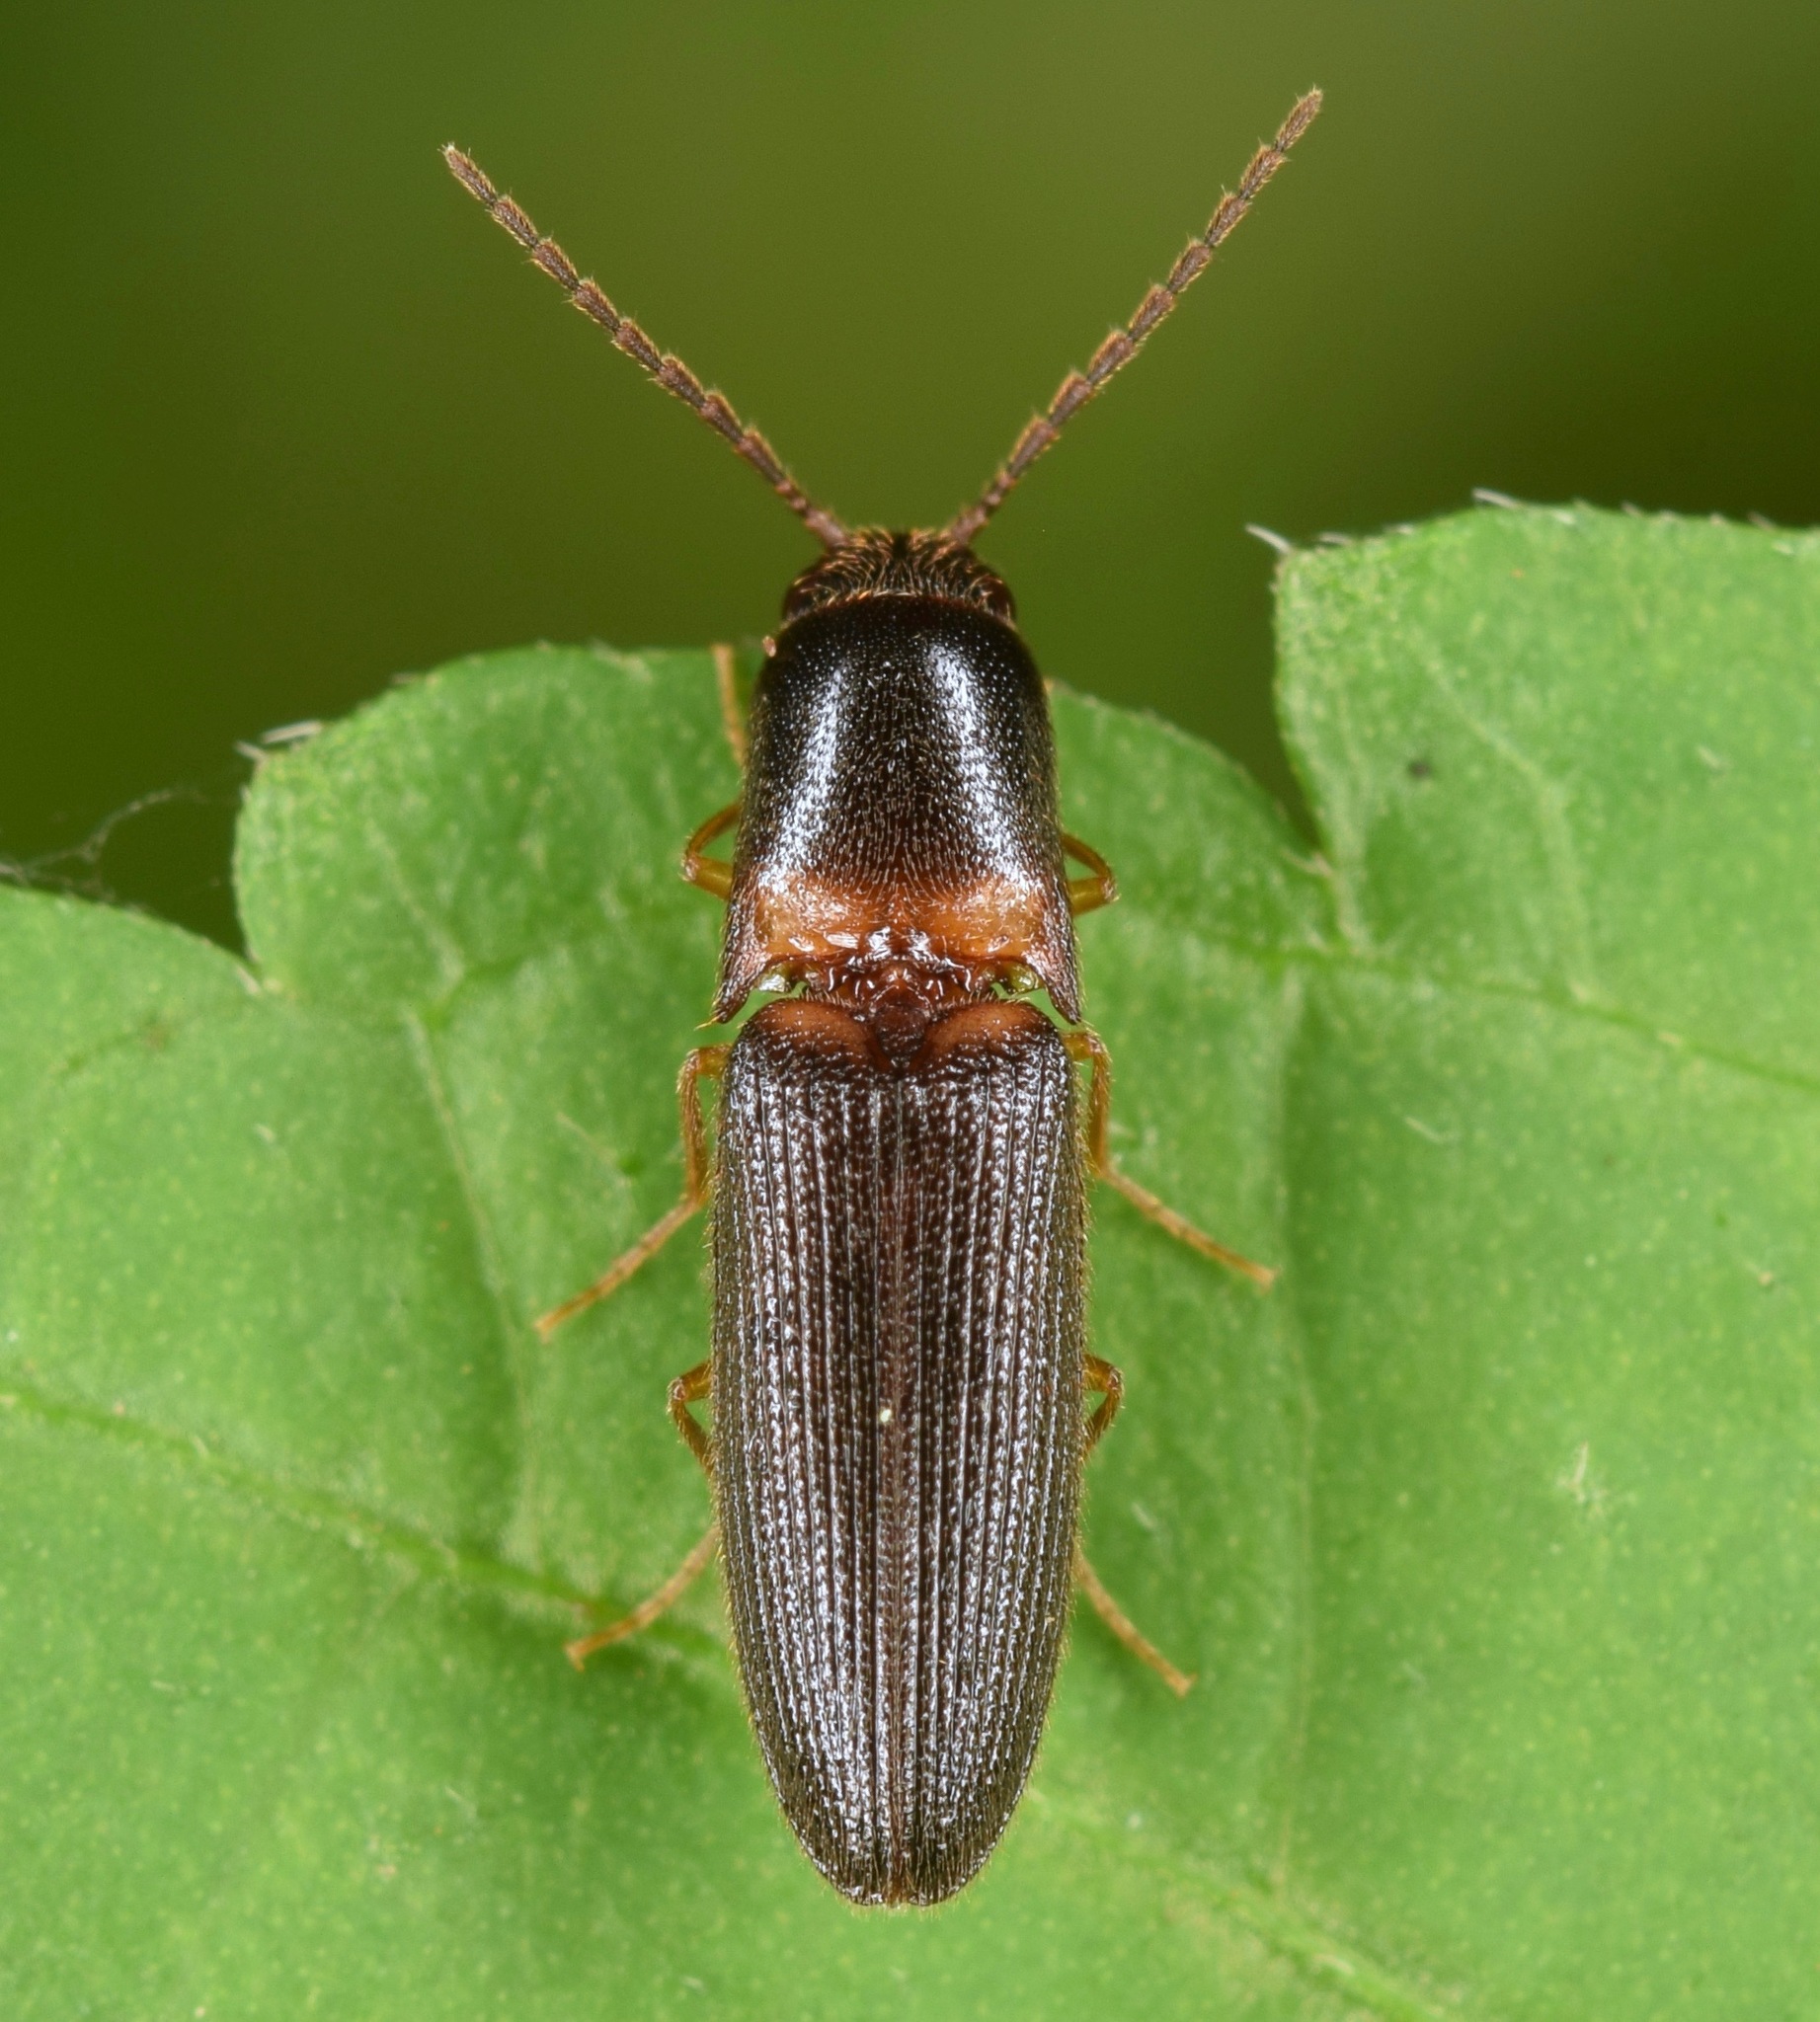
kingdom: Animalia
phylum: Arthropoda
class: Insecta
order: Coleoptera
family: Elateridae
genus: Megapenthes
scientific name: Megapenthes
